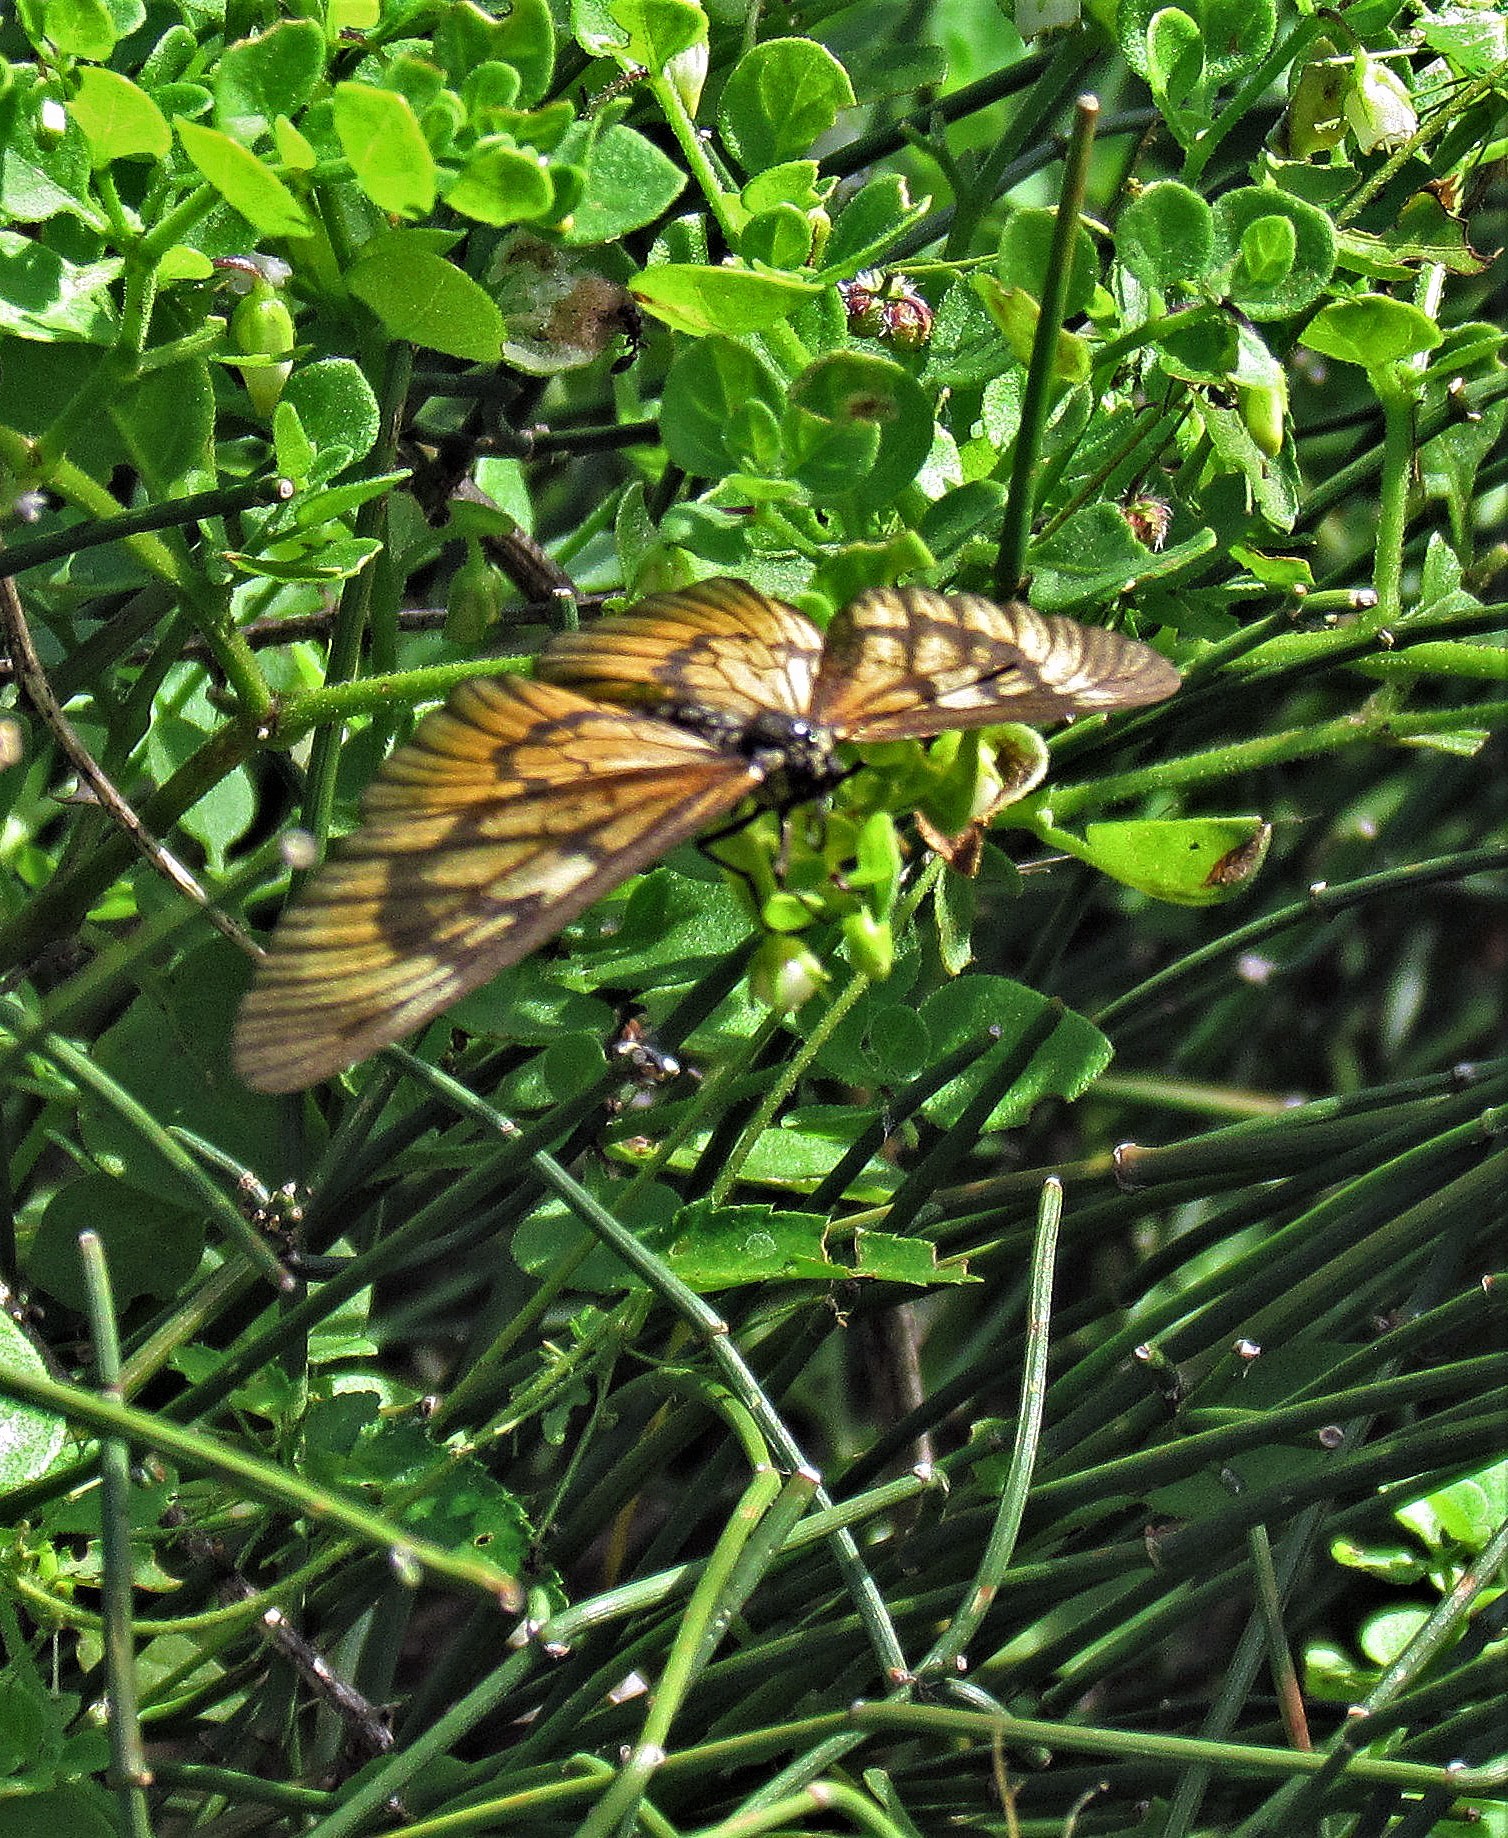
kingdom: Animalia
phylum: Arthropoda
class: Insecta
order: Lepidoptera
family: Nymphalidae
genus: Acraea
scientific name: Acraea momina
